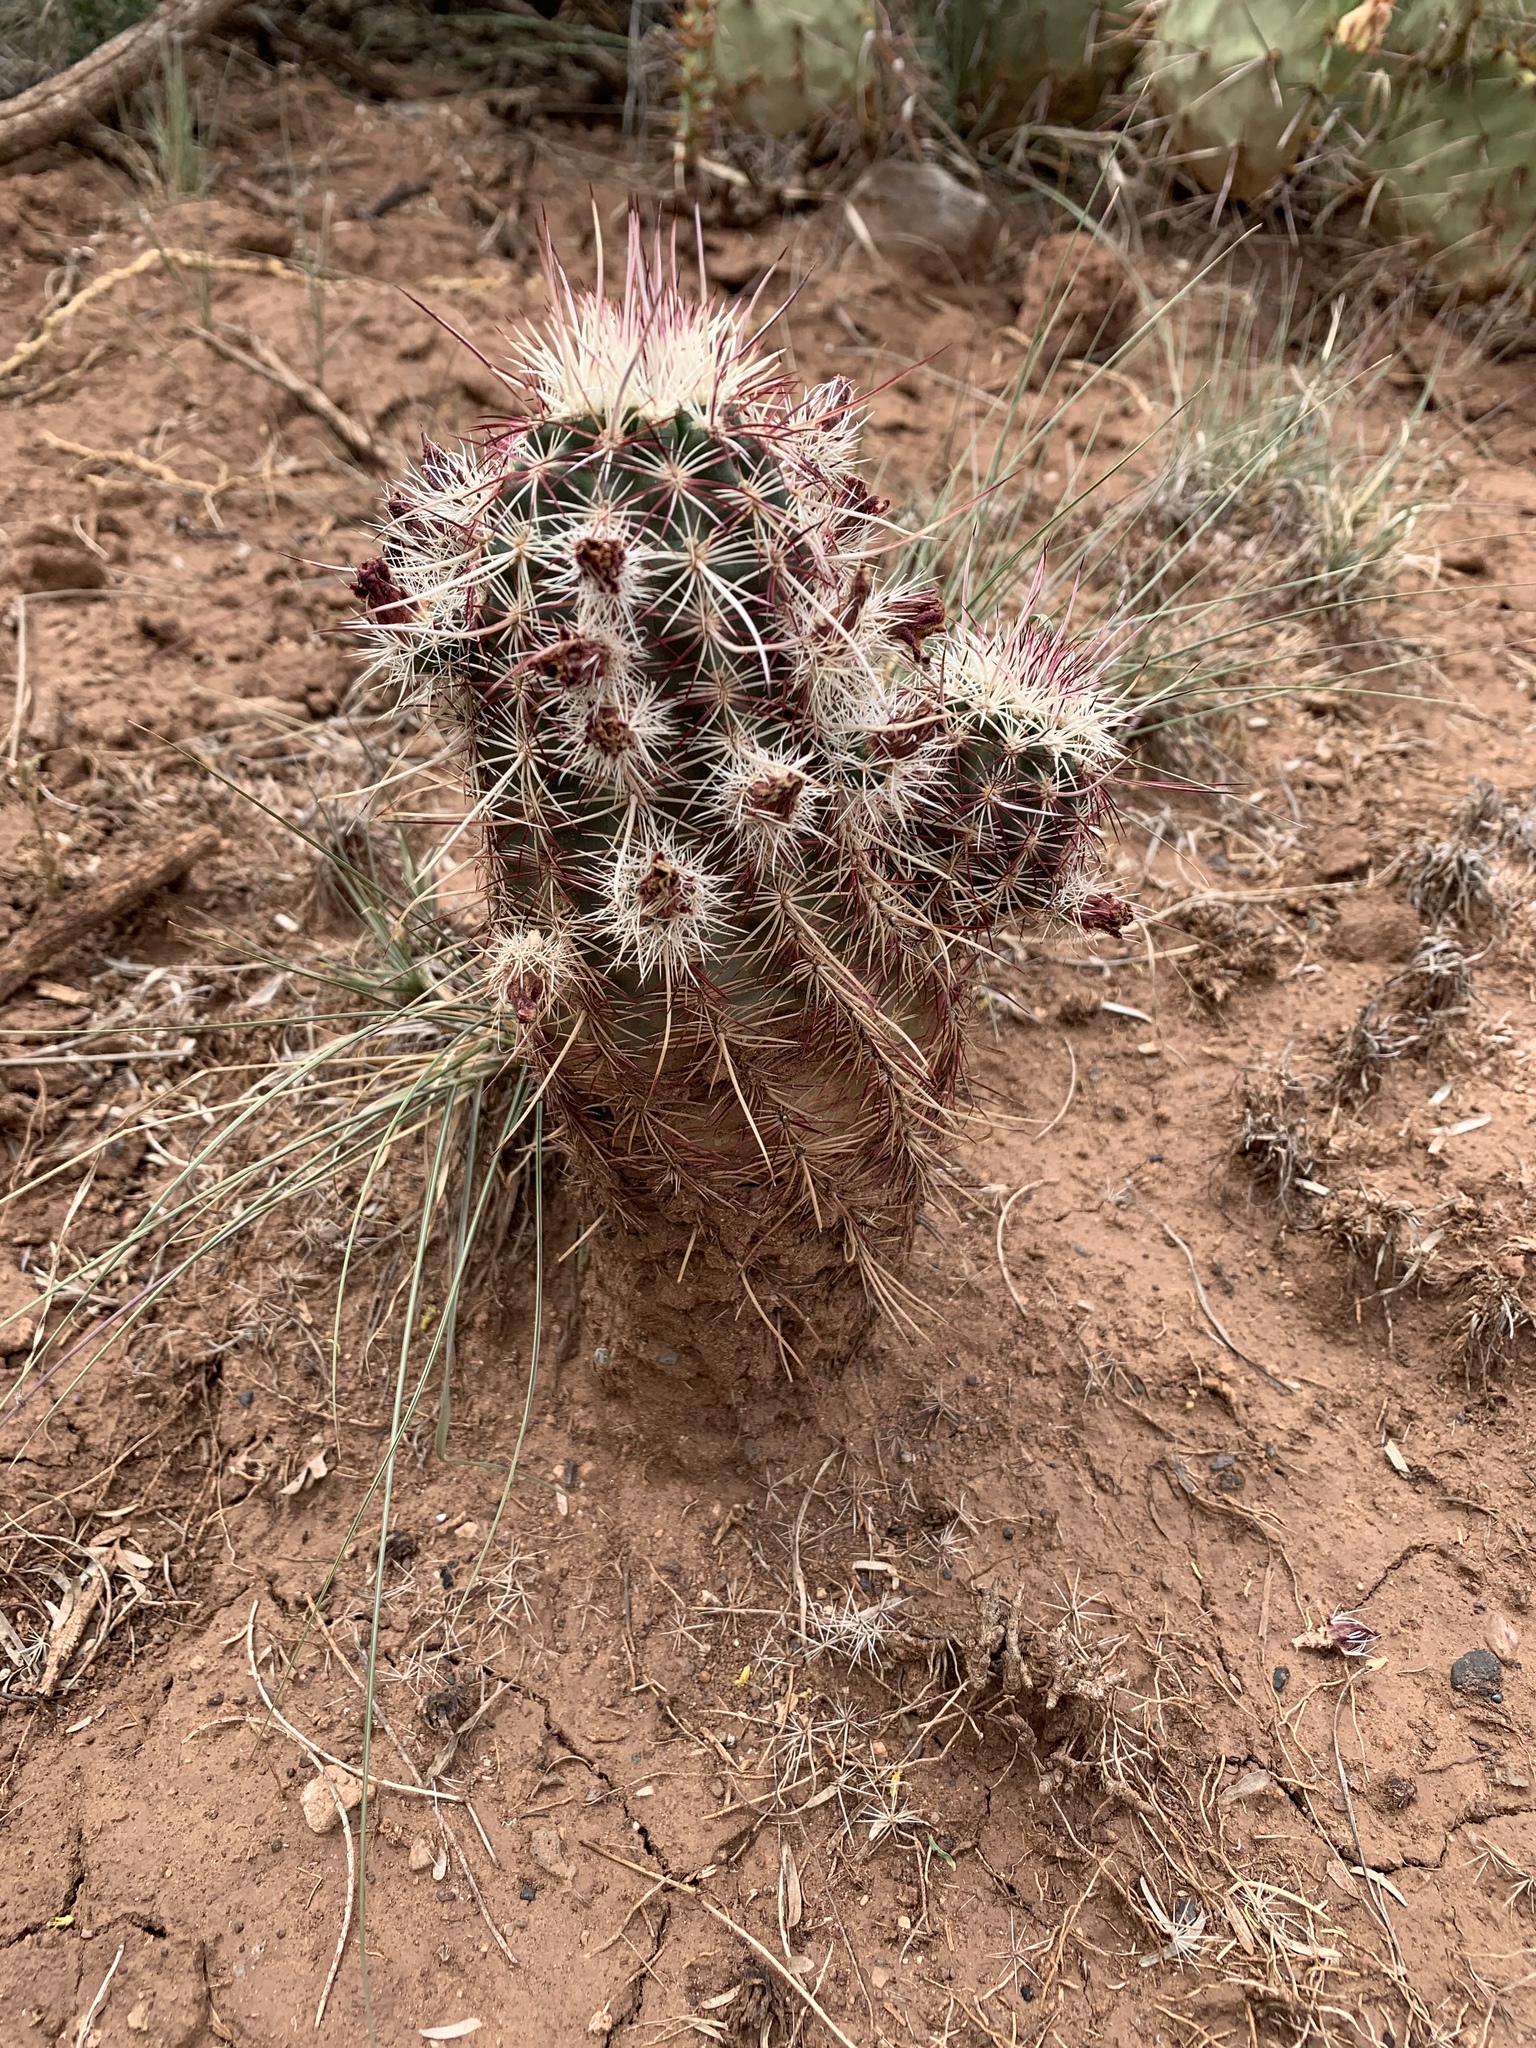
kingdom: Plantae
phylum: Tracheophyta
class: Magnoliopsida
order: Caryophyllales
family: Cactaceae
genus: Echinocereus
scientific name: Echinocereus viridiflorus
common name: Nylon hedgehog cactus
